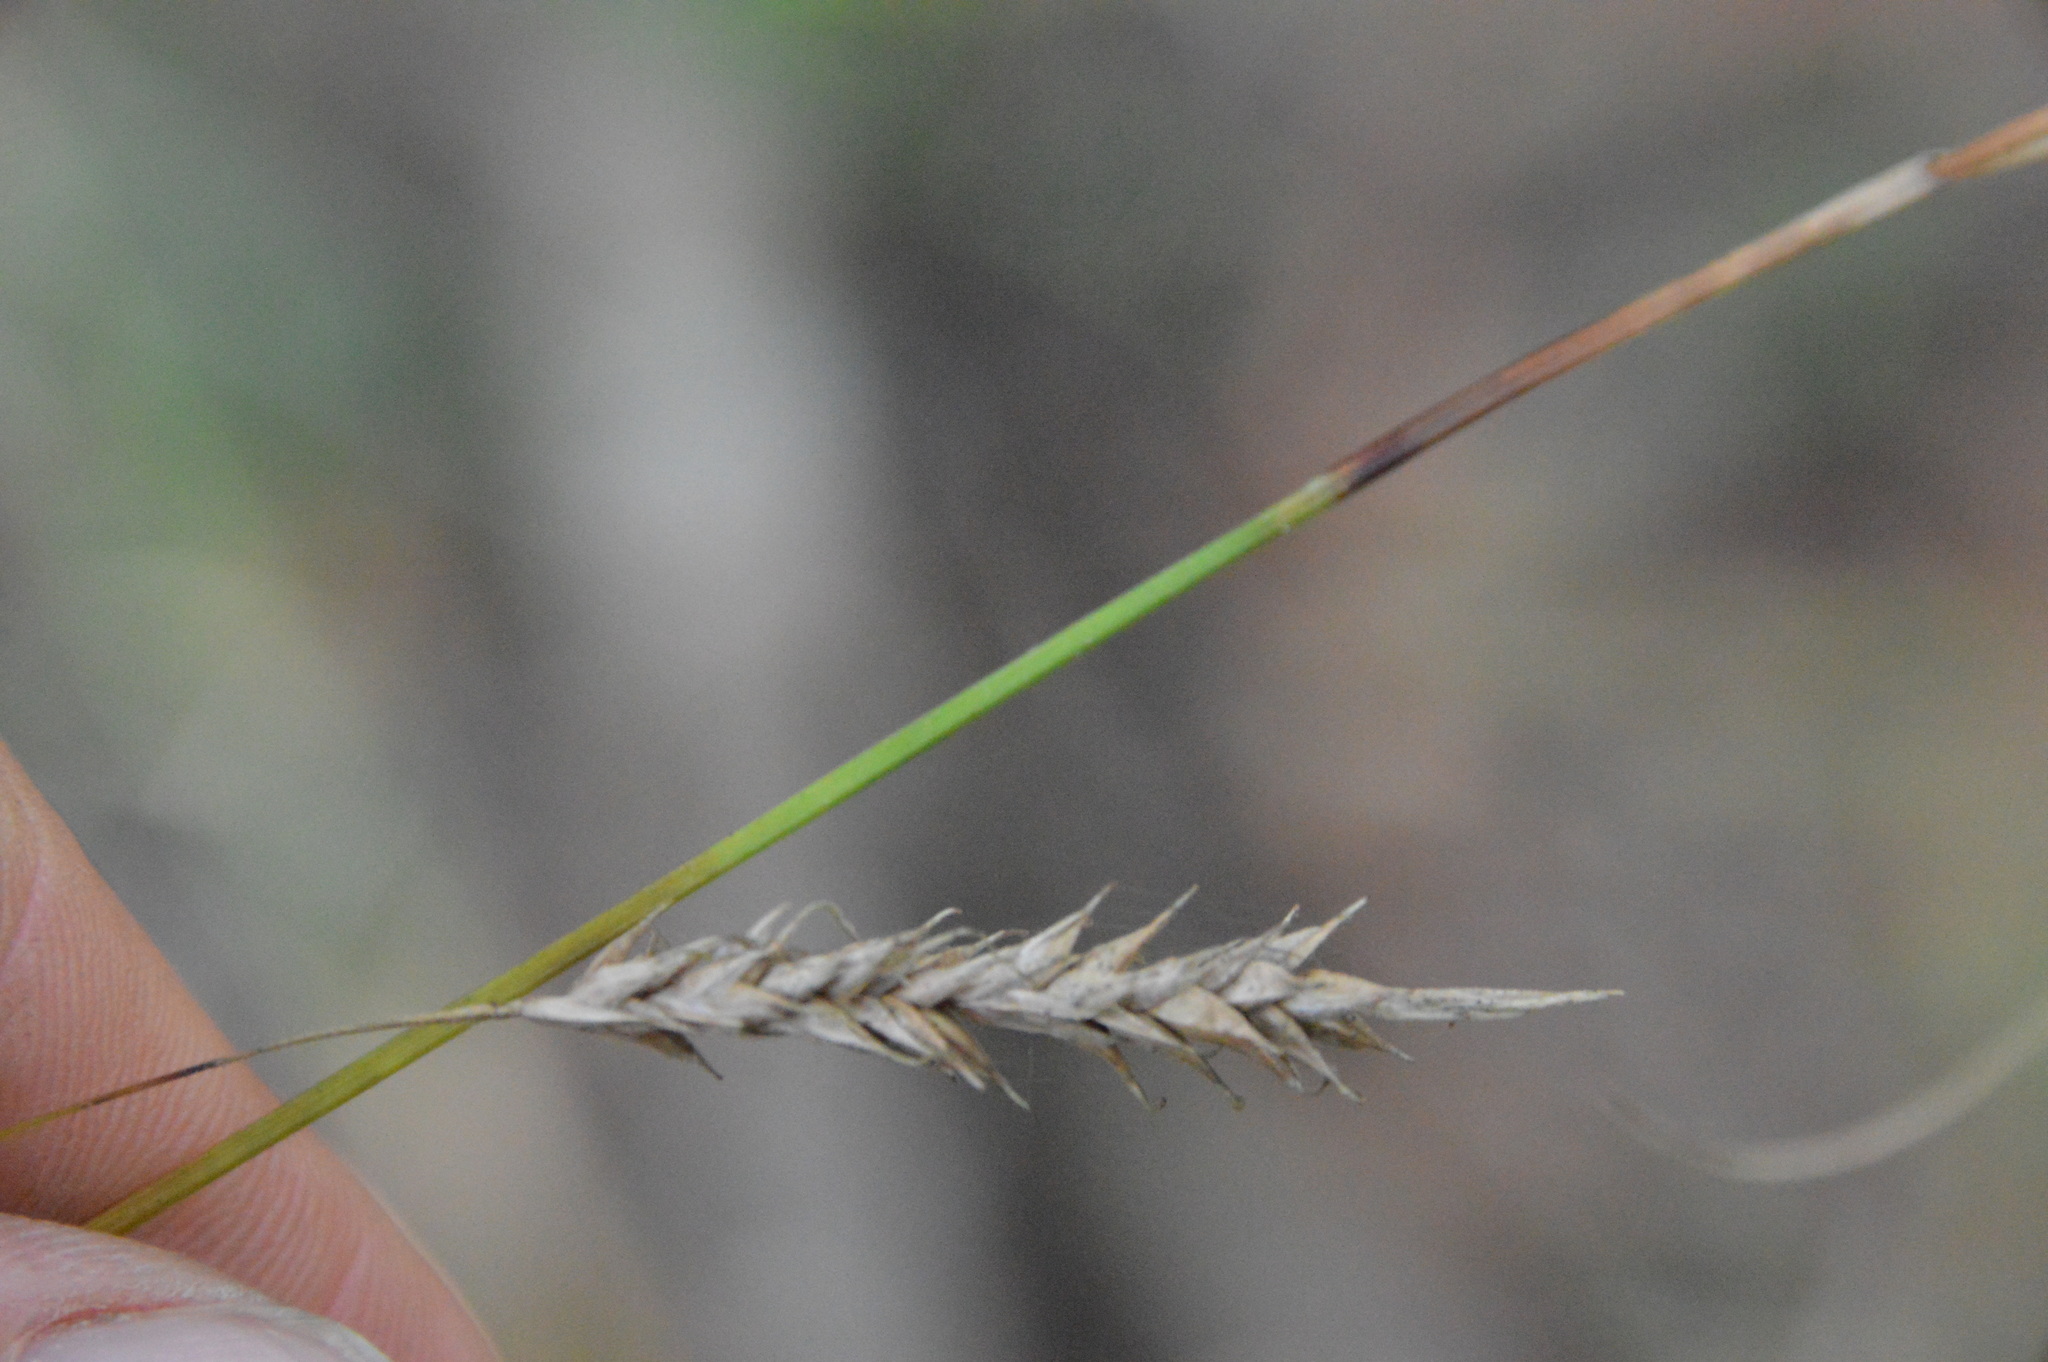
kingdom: Plantae
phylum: Tracheophyta
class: Liliopsida
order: Poales
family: Cyperaceae
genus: Carex
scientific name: Carex cherokeensis
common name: Cherokee sedge
